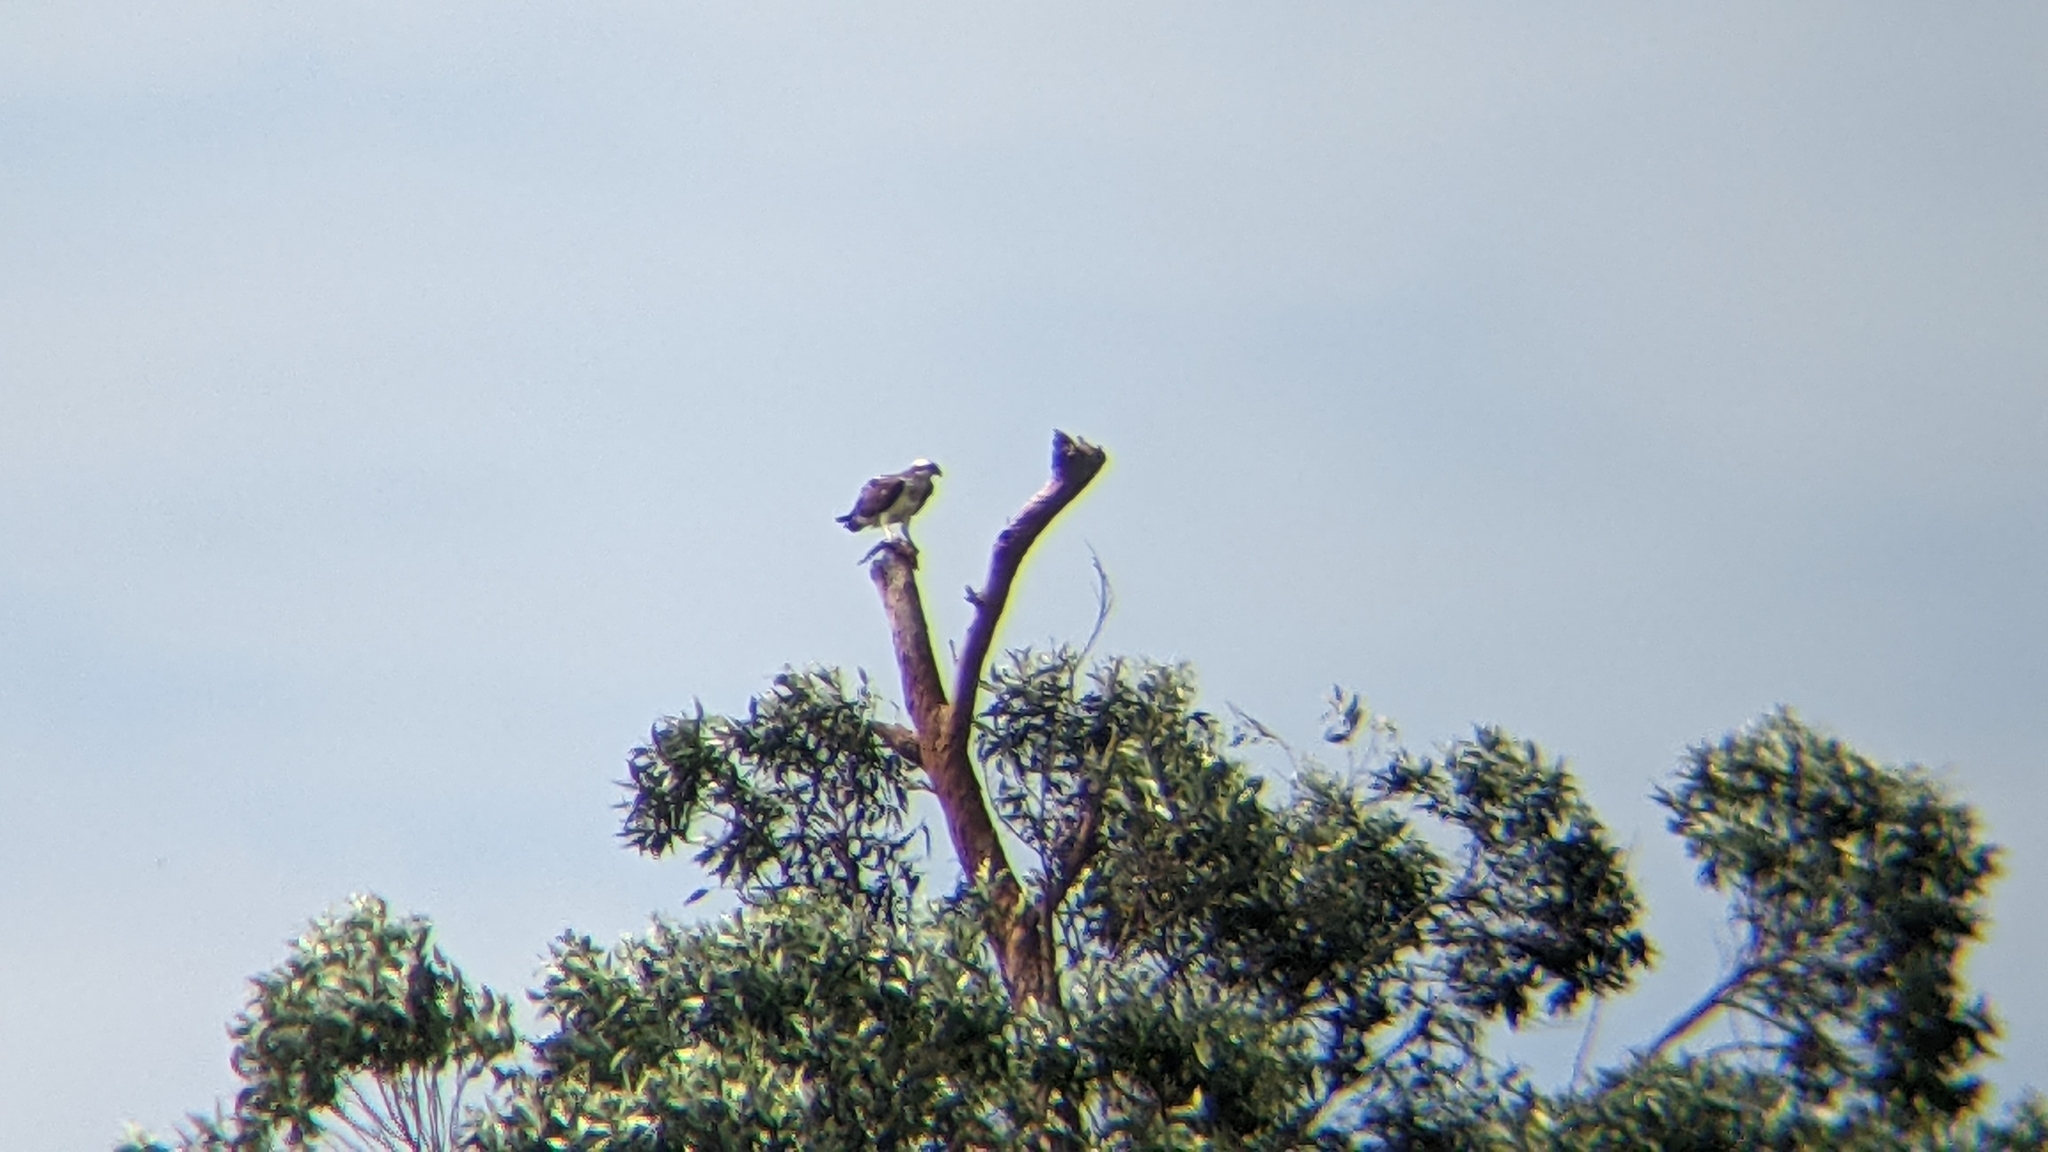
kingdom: Animalia
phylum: Chordata
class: Aves
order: Accipitriformes
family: Pandionidae
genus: Pandion
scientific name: Pandion haliaetus
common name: Osprey
